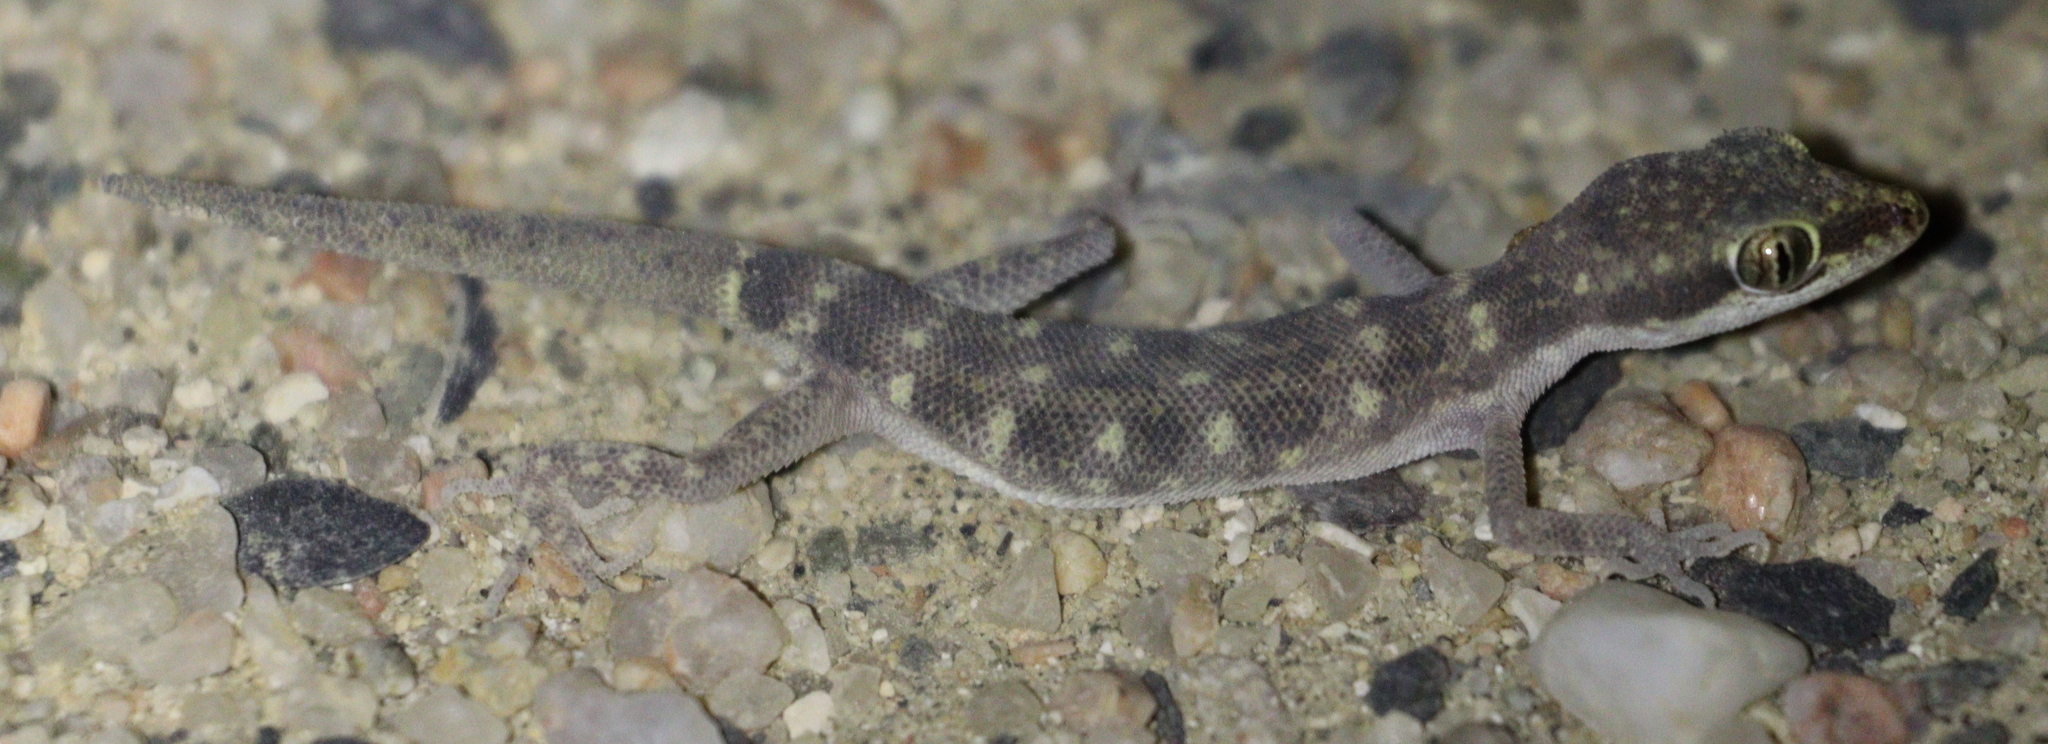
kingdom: Animalia
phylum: Chordata
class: Squamata
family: Gekkonidae
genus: Tropiocolotes
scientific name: Tropiocolotes steudneri
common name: Algerian sand gecko
